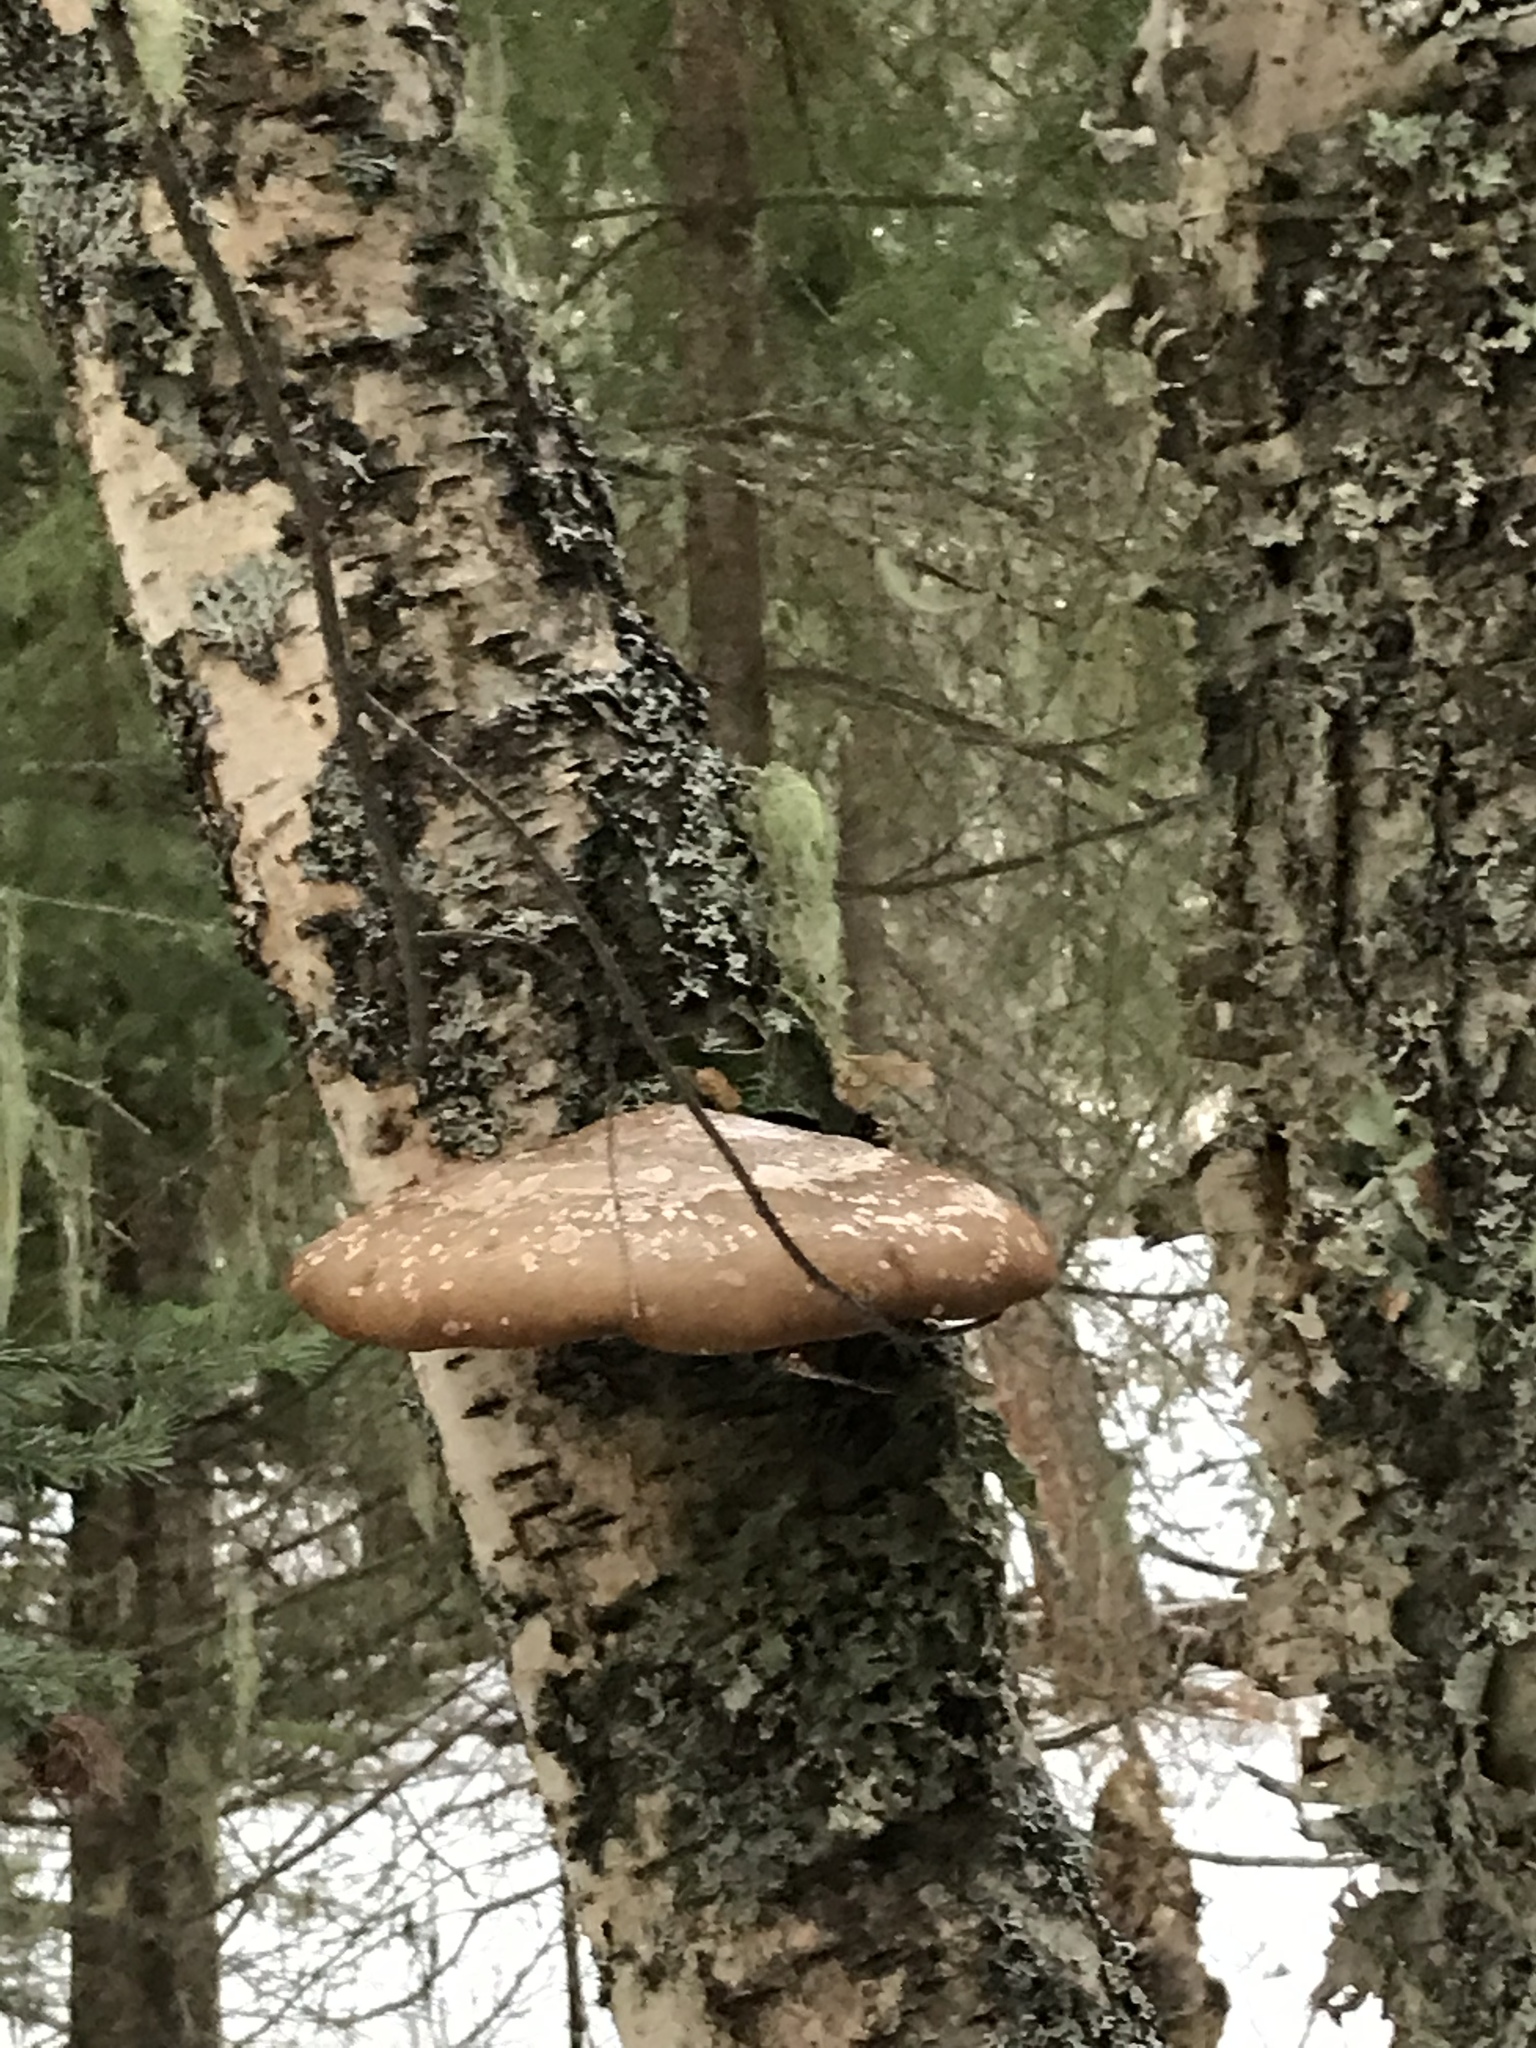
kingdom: Fungi
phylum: Basidiomycota
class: Agaricomycetes
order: Polyporales
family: Fomitopsidaceae
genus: Fomitopsis
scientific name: Fomitopsis betulina
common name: Birch polypore
